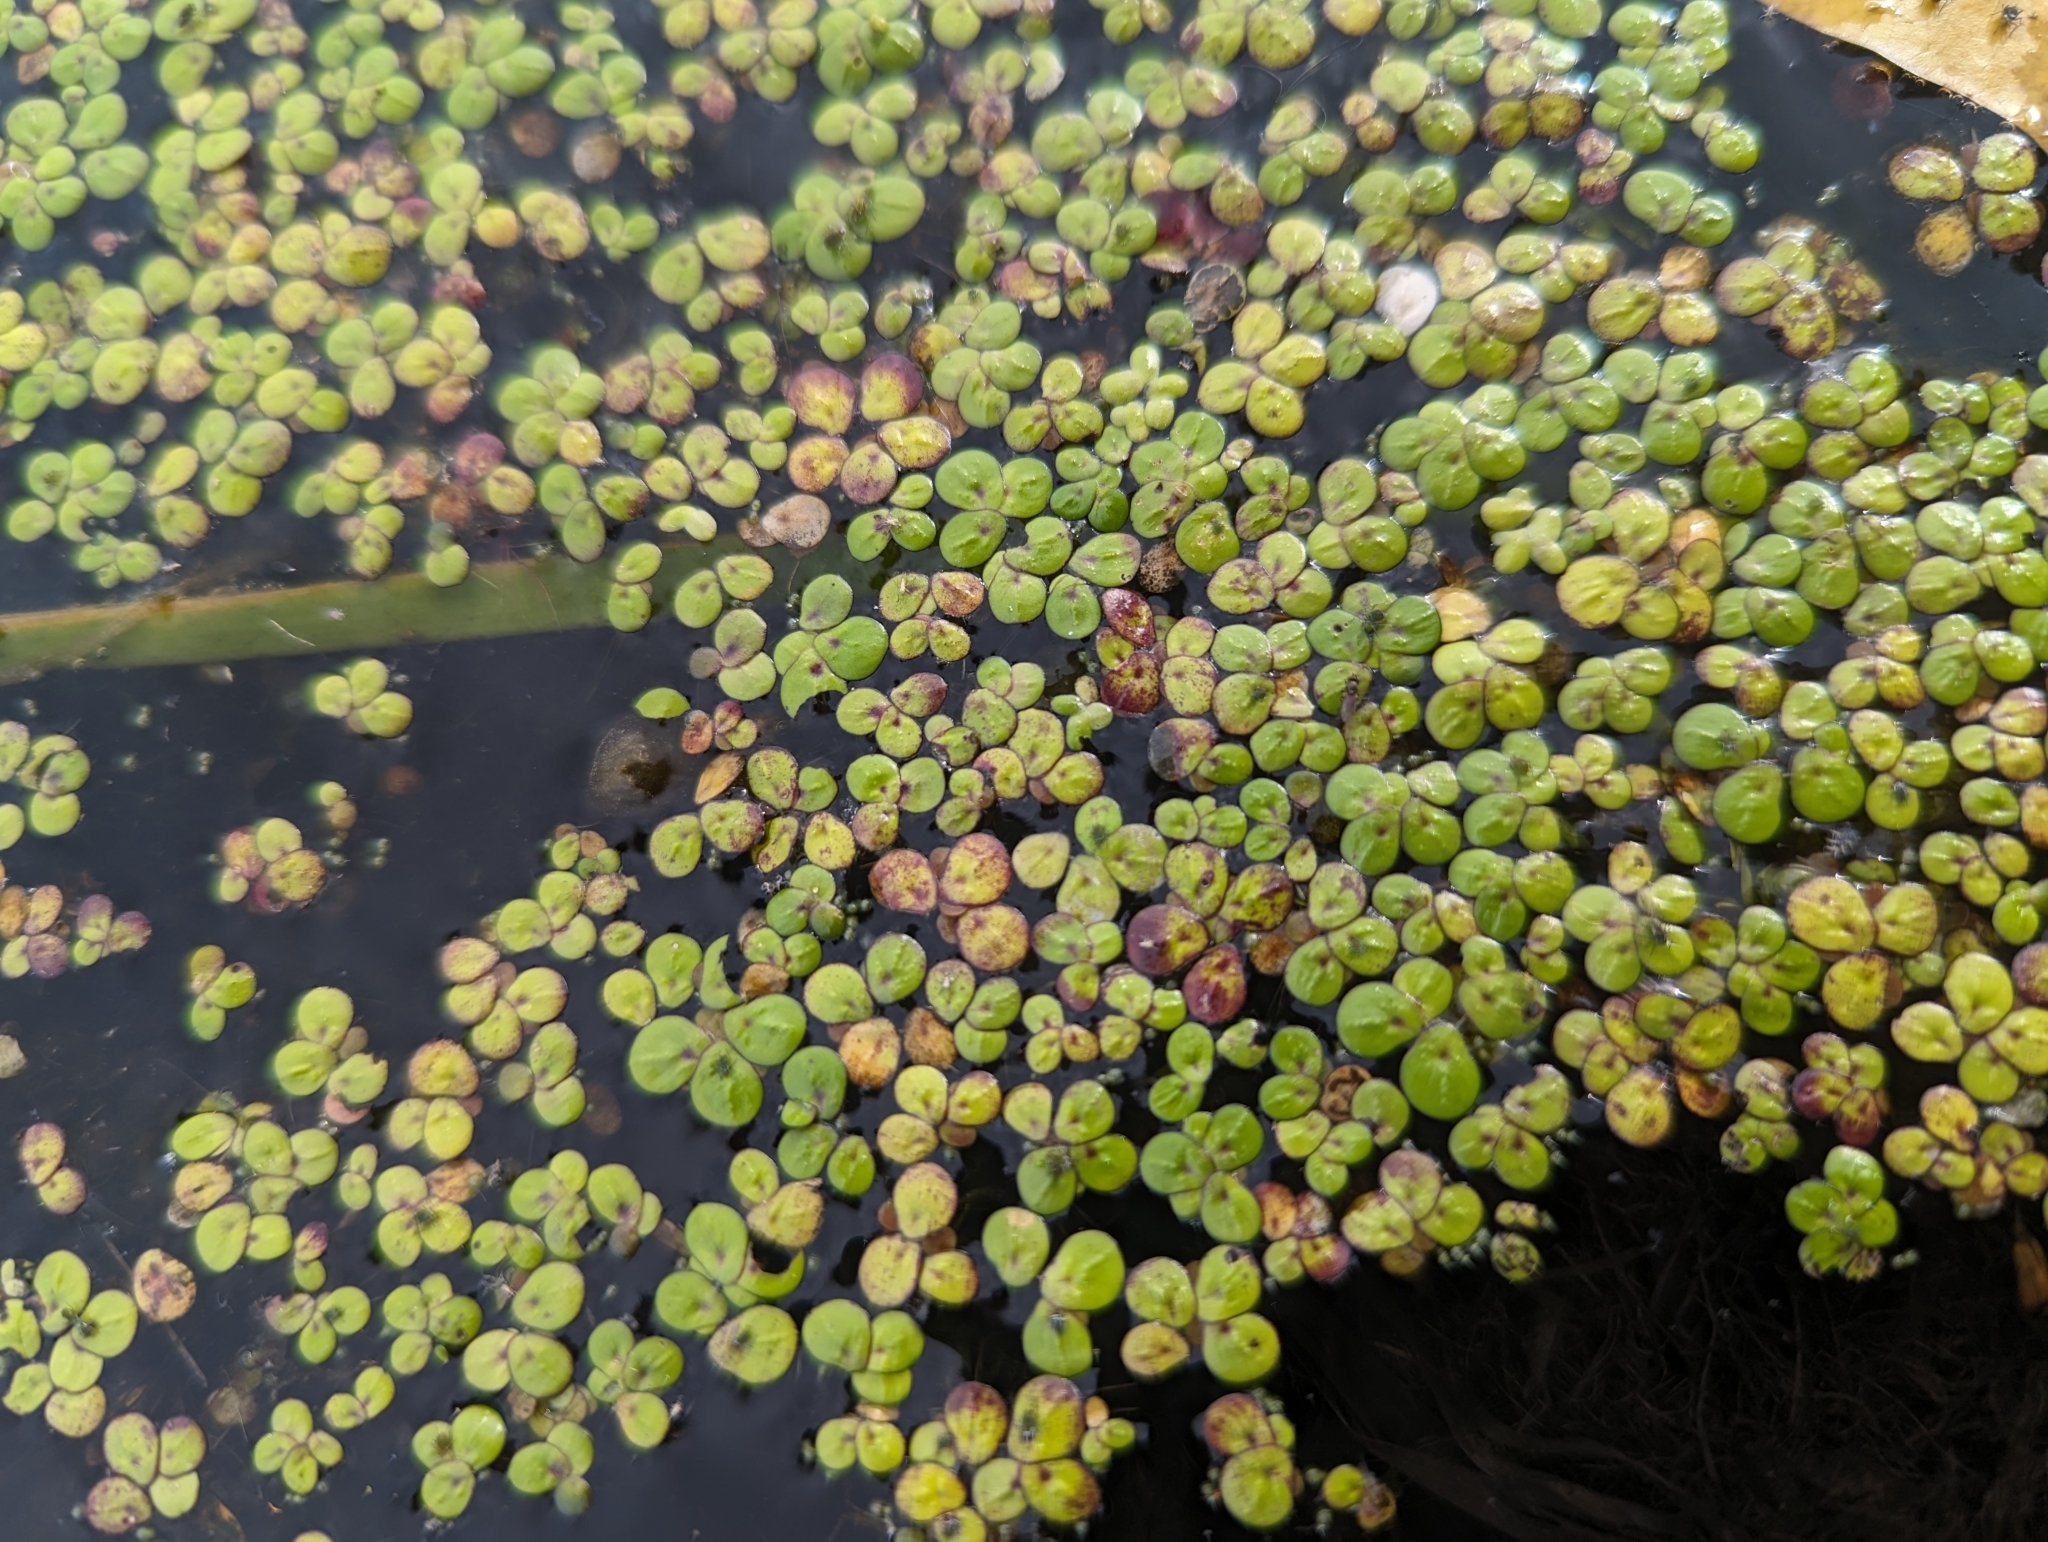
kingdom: Plantae
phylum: Tracheophyta
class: Liliopsida
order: Alismatales
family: Araceae
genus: Spirodela
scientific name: Spirodela polyrhiza
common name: Great duckweed
